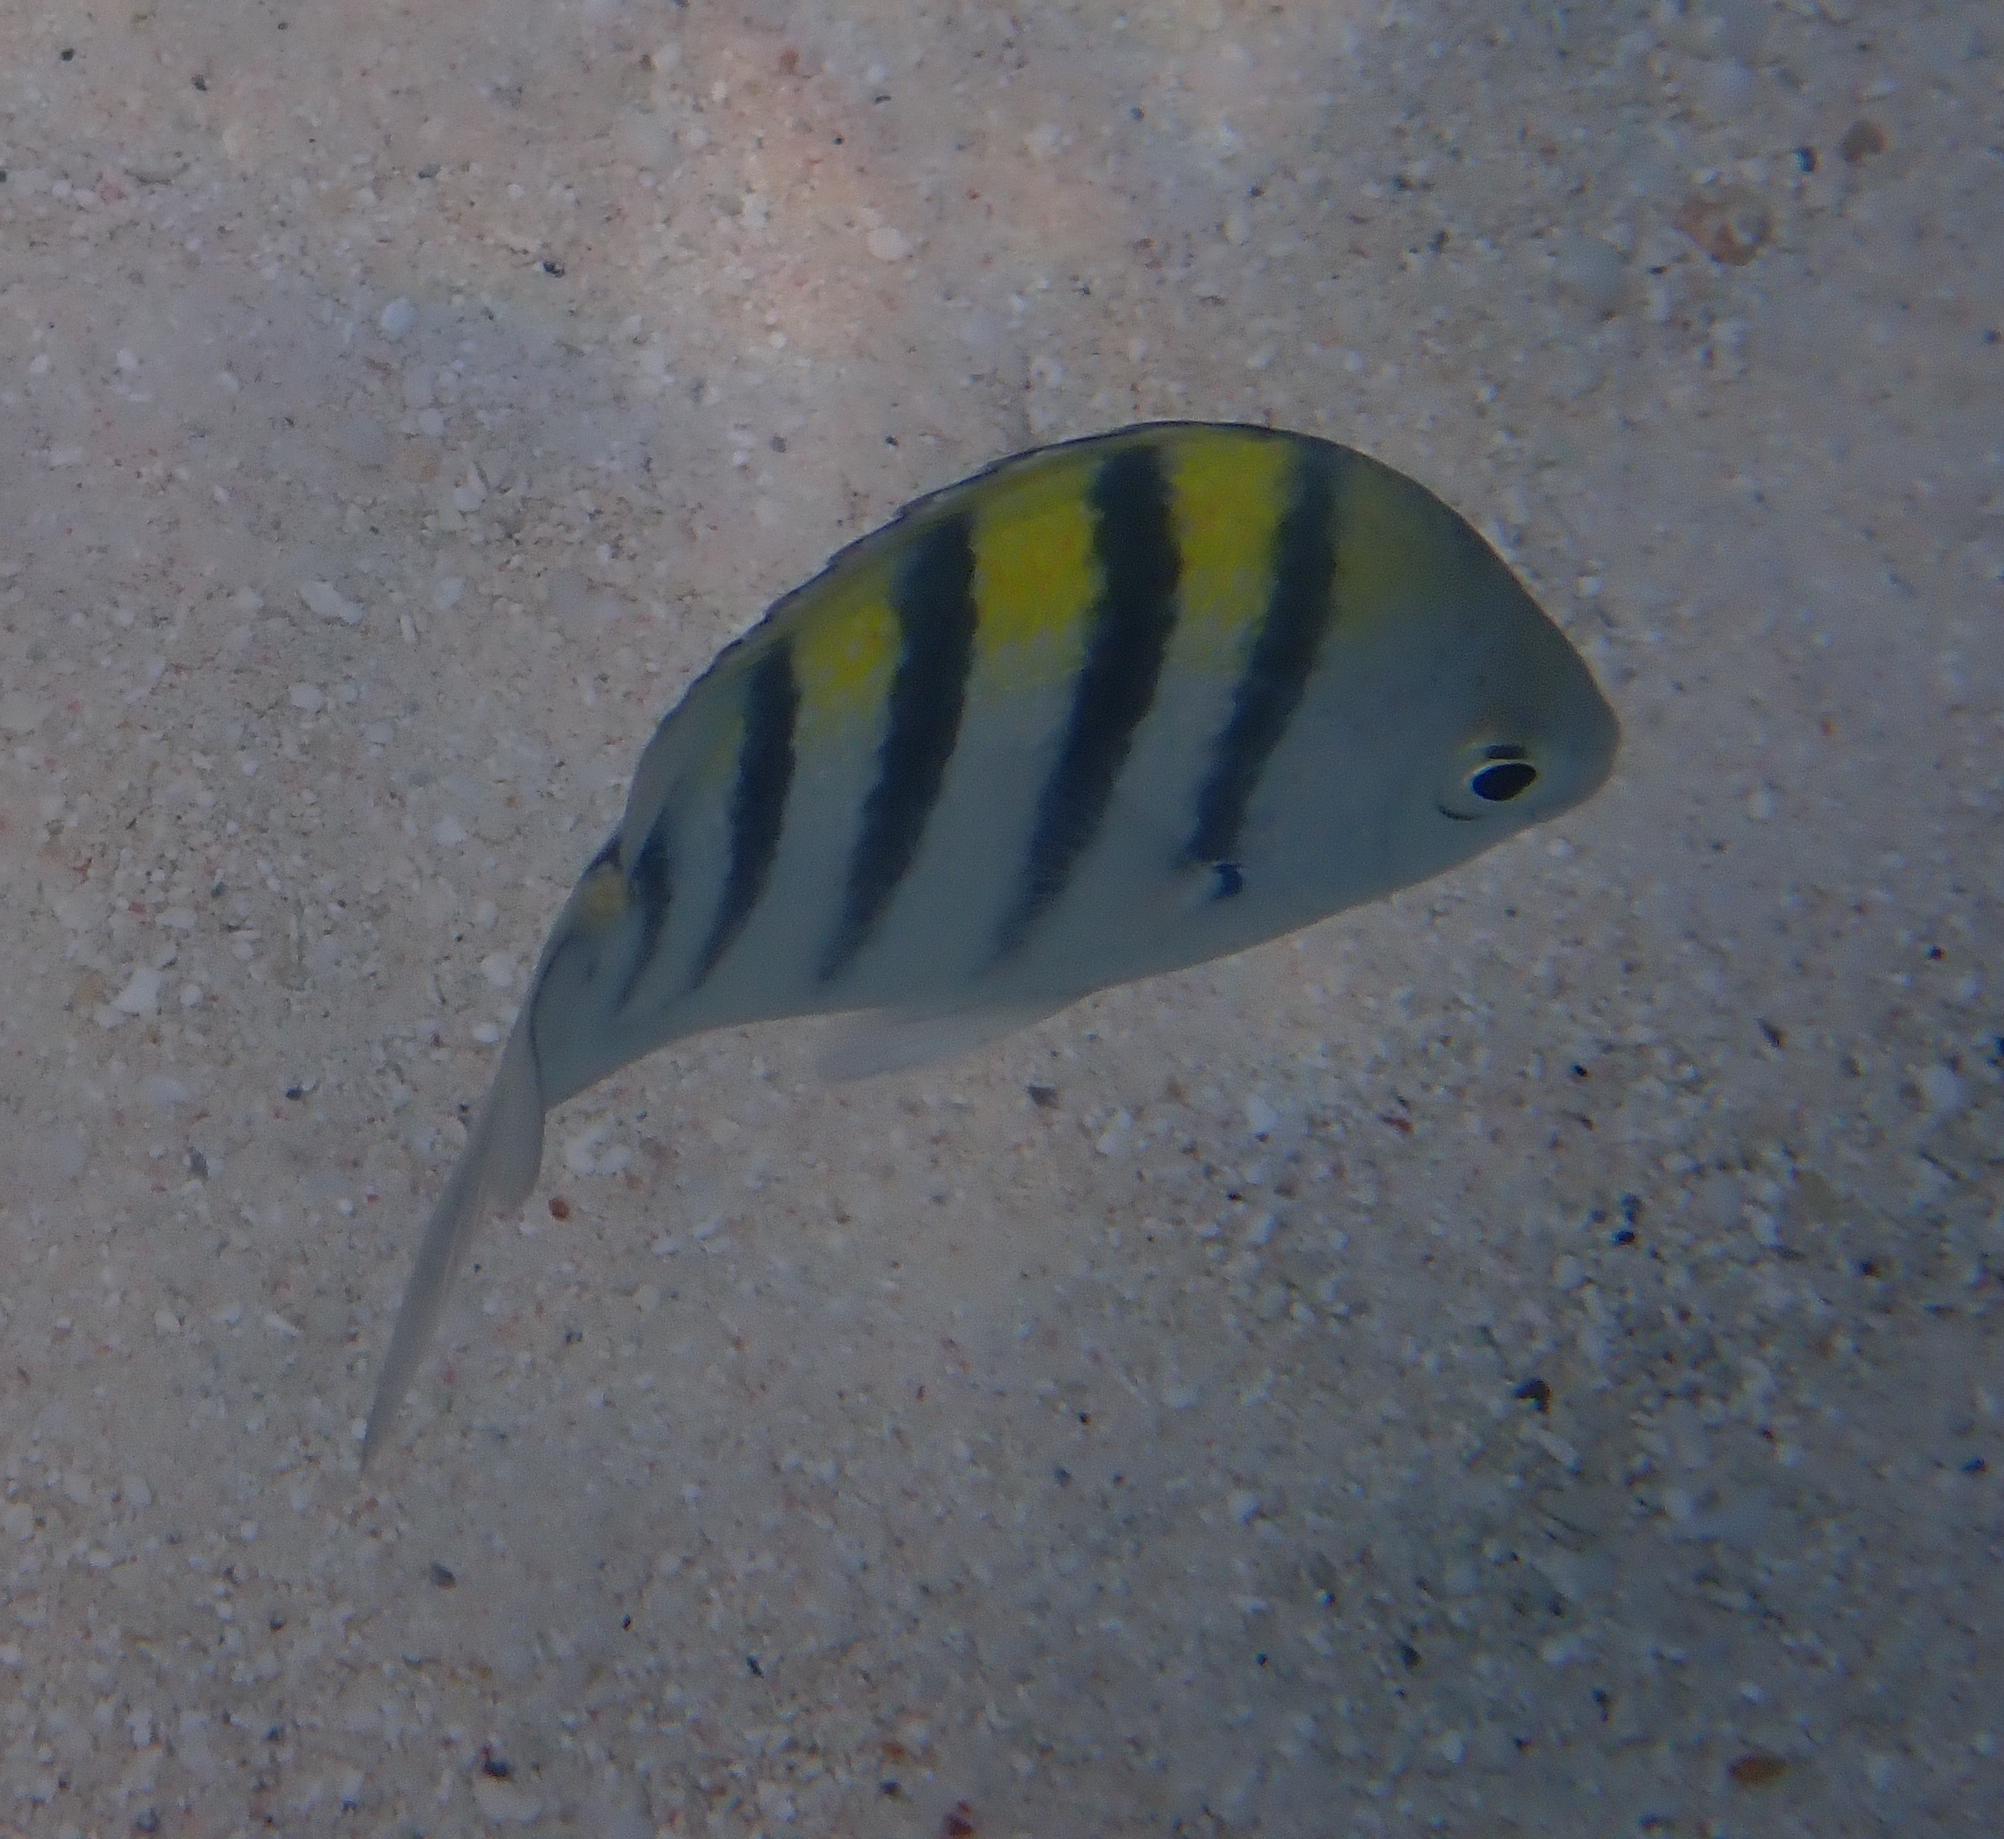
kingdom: Animalia
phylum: Chordata
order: Perciformes
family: Pomacentridae
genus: Abudefduf
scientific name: Abudefduf saxatilis
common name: Sergeant major
